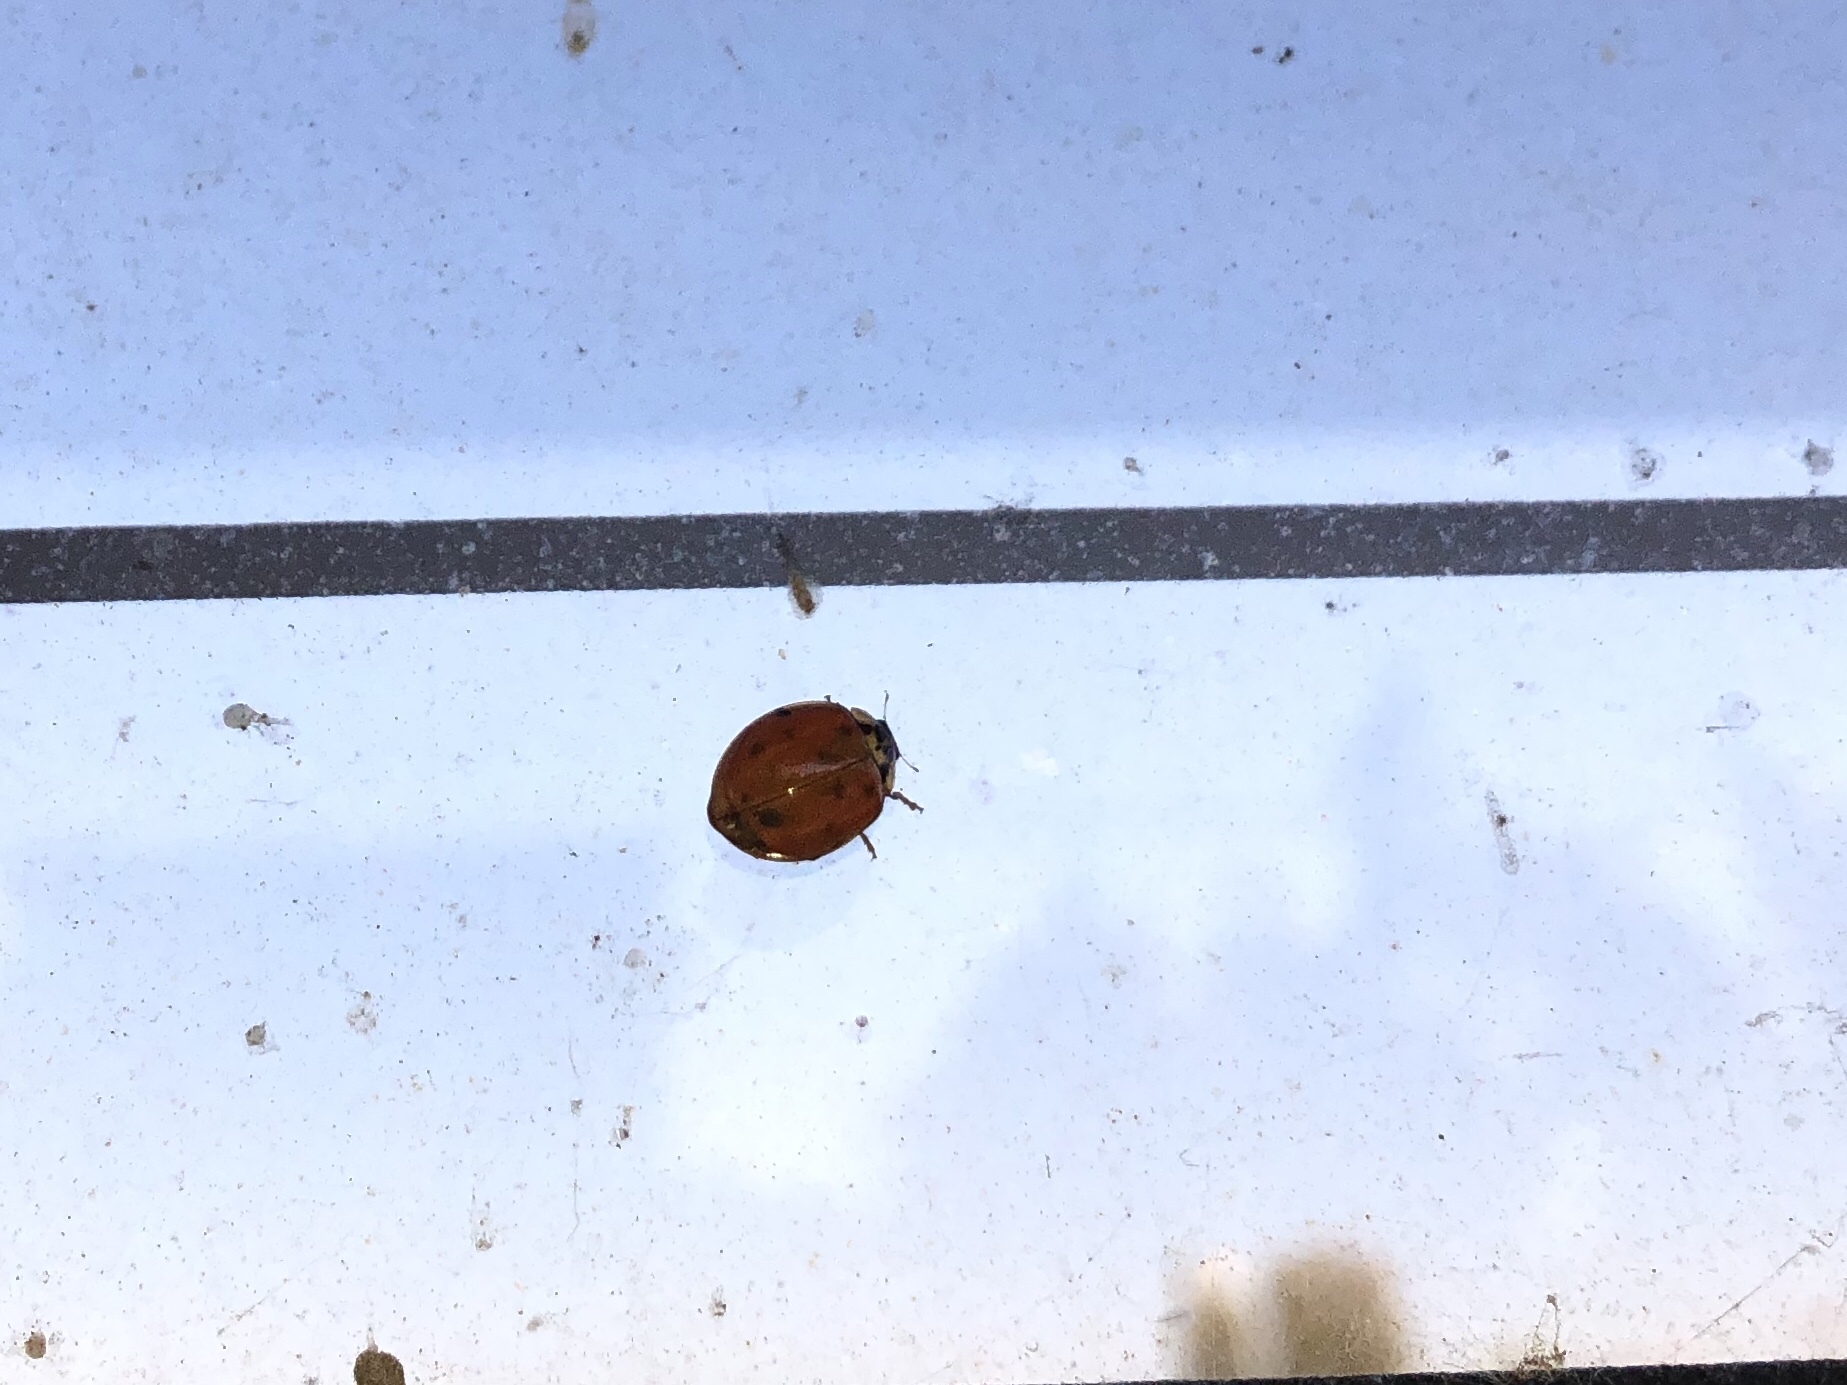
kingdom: Animalia
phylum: Arthropoda
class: Insecta
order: Coleoptera
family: Coccinellidae
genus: Harmonia
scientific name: Harmonia axyridis
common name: Harlequin ladybird
